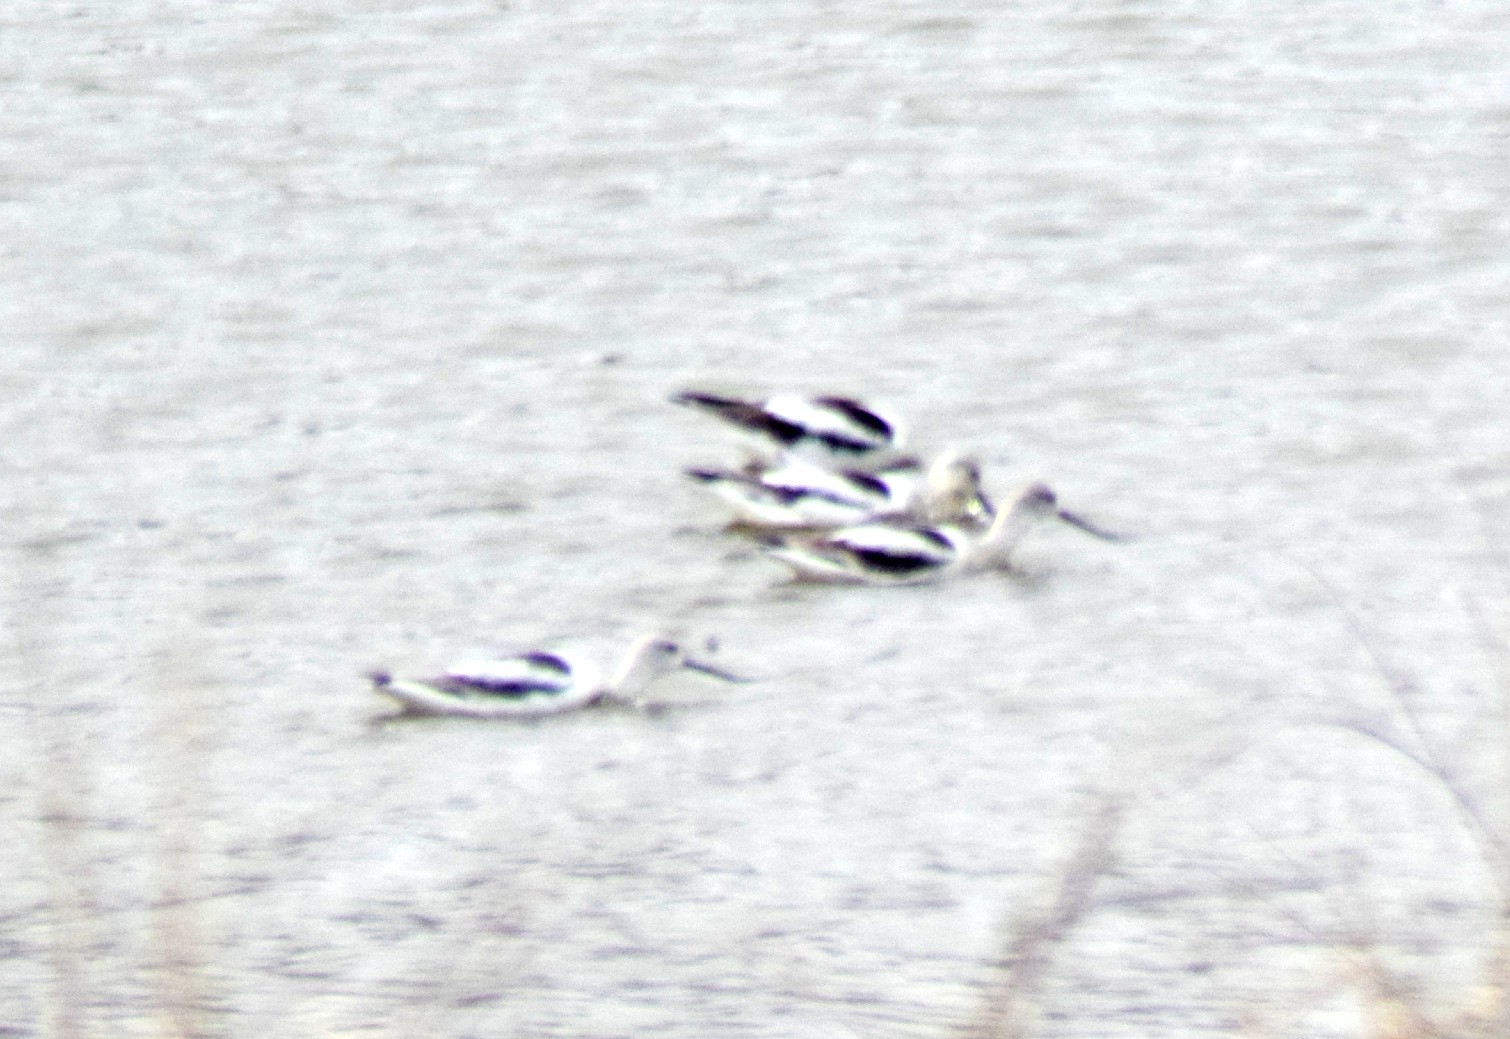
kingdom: Animalia
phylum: Chordata
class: Aves
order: Charadriiformes
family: Recurvirostridae
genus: Recurvirostra
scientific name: Recurvirostra americana
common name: American avocet
